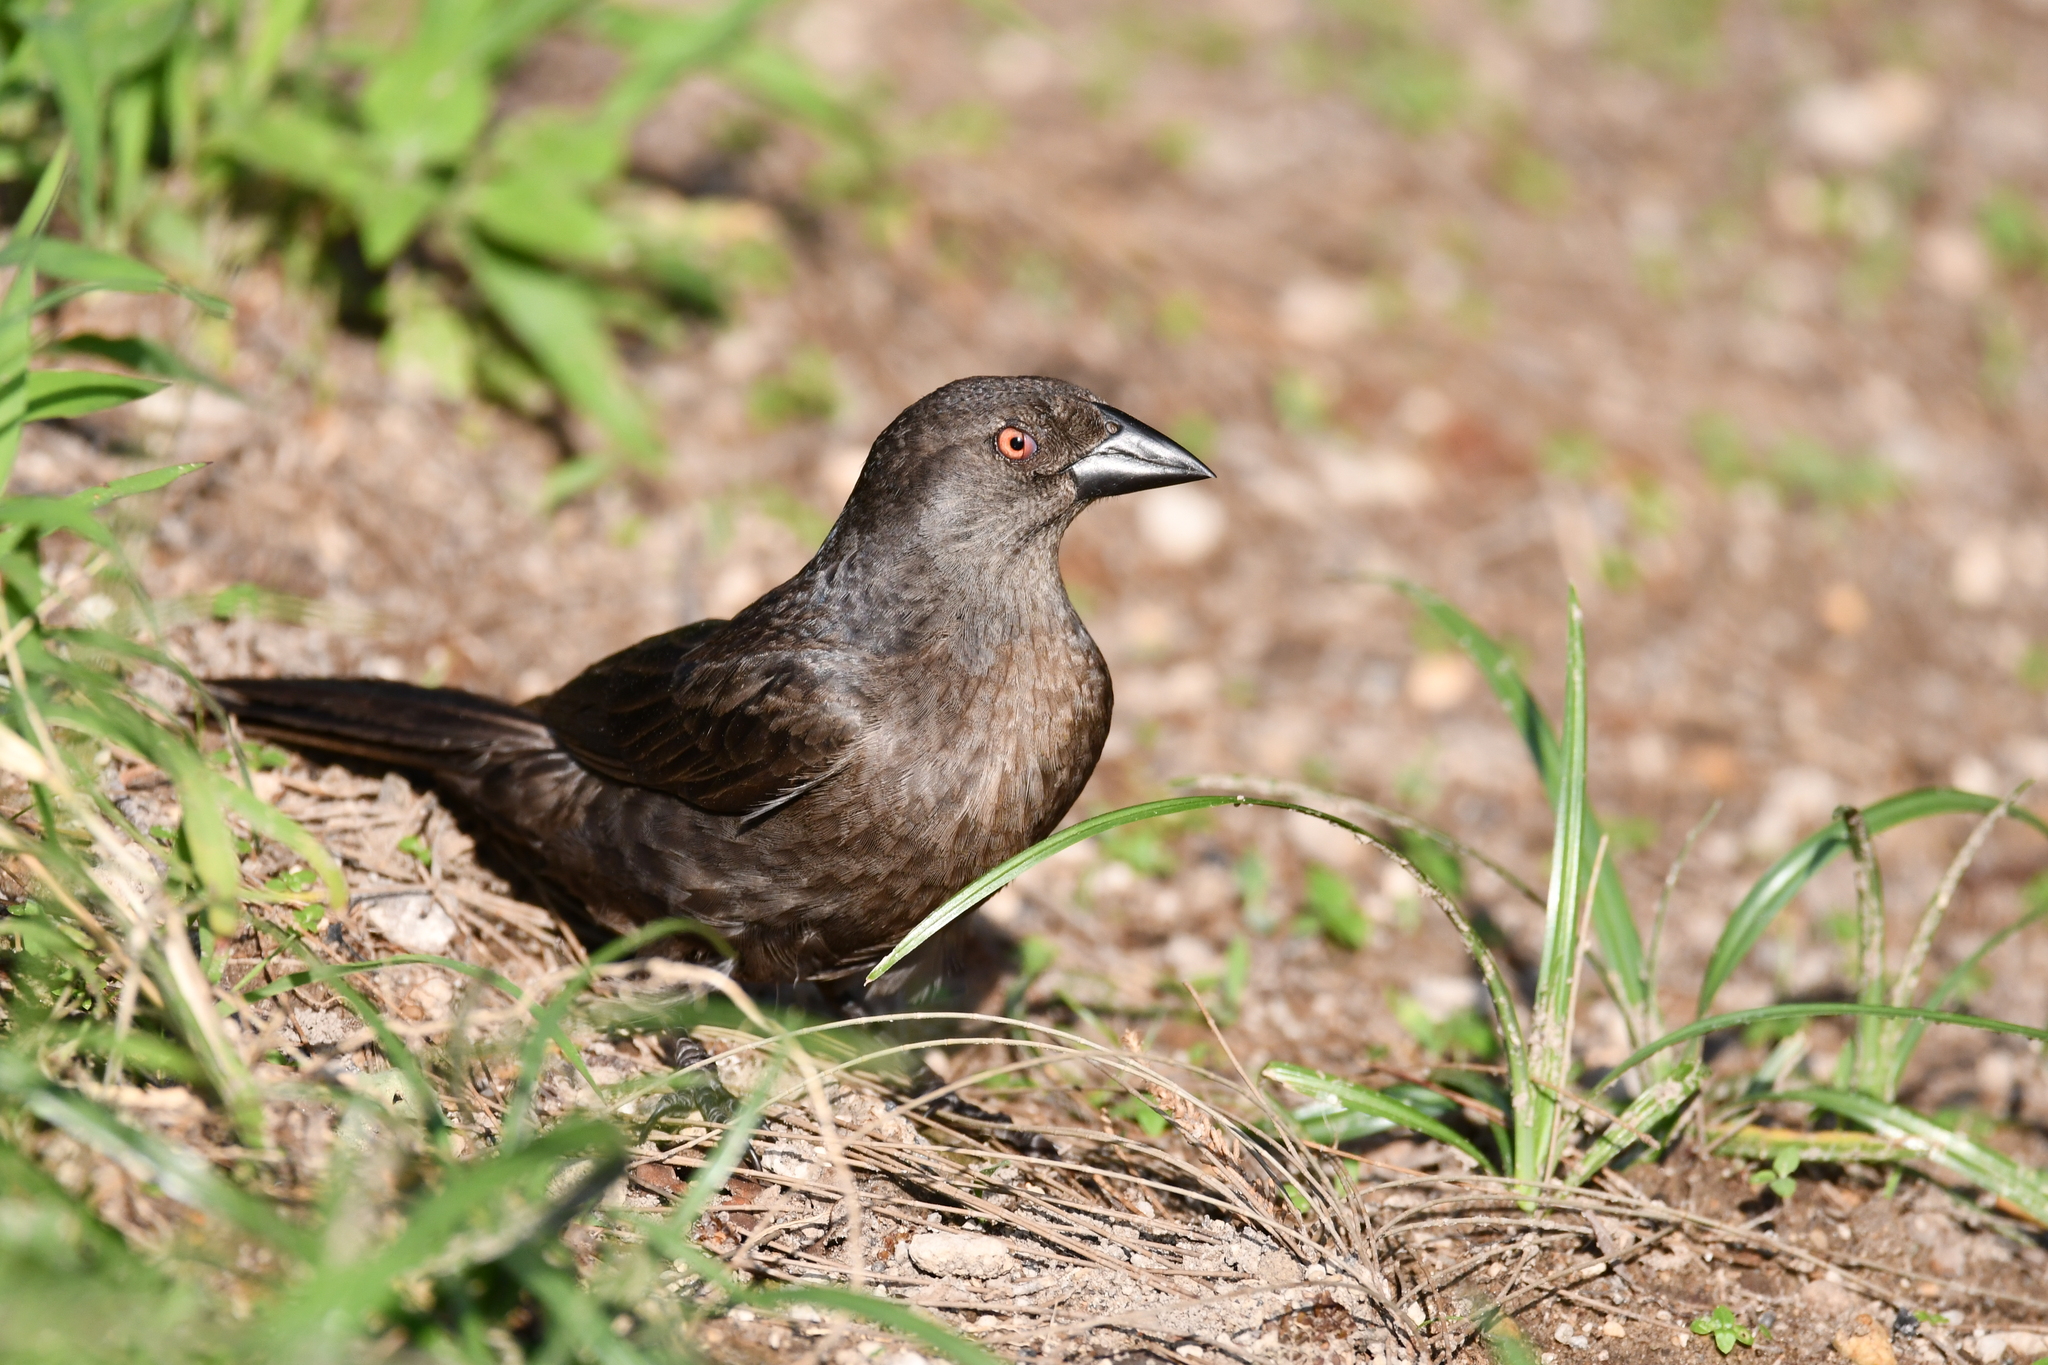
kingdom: Animalia
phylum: Chordata
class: Aves
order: Passeriformes
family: Icteridae
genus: Molothrus
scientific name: Molothrus aeneus
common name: Bronzed cowbird
